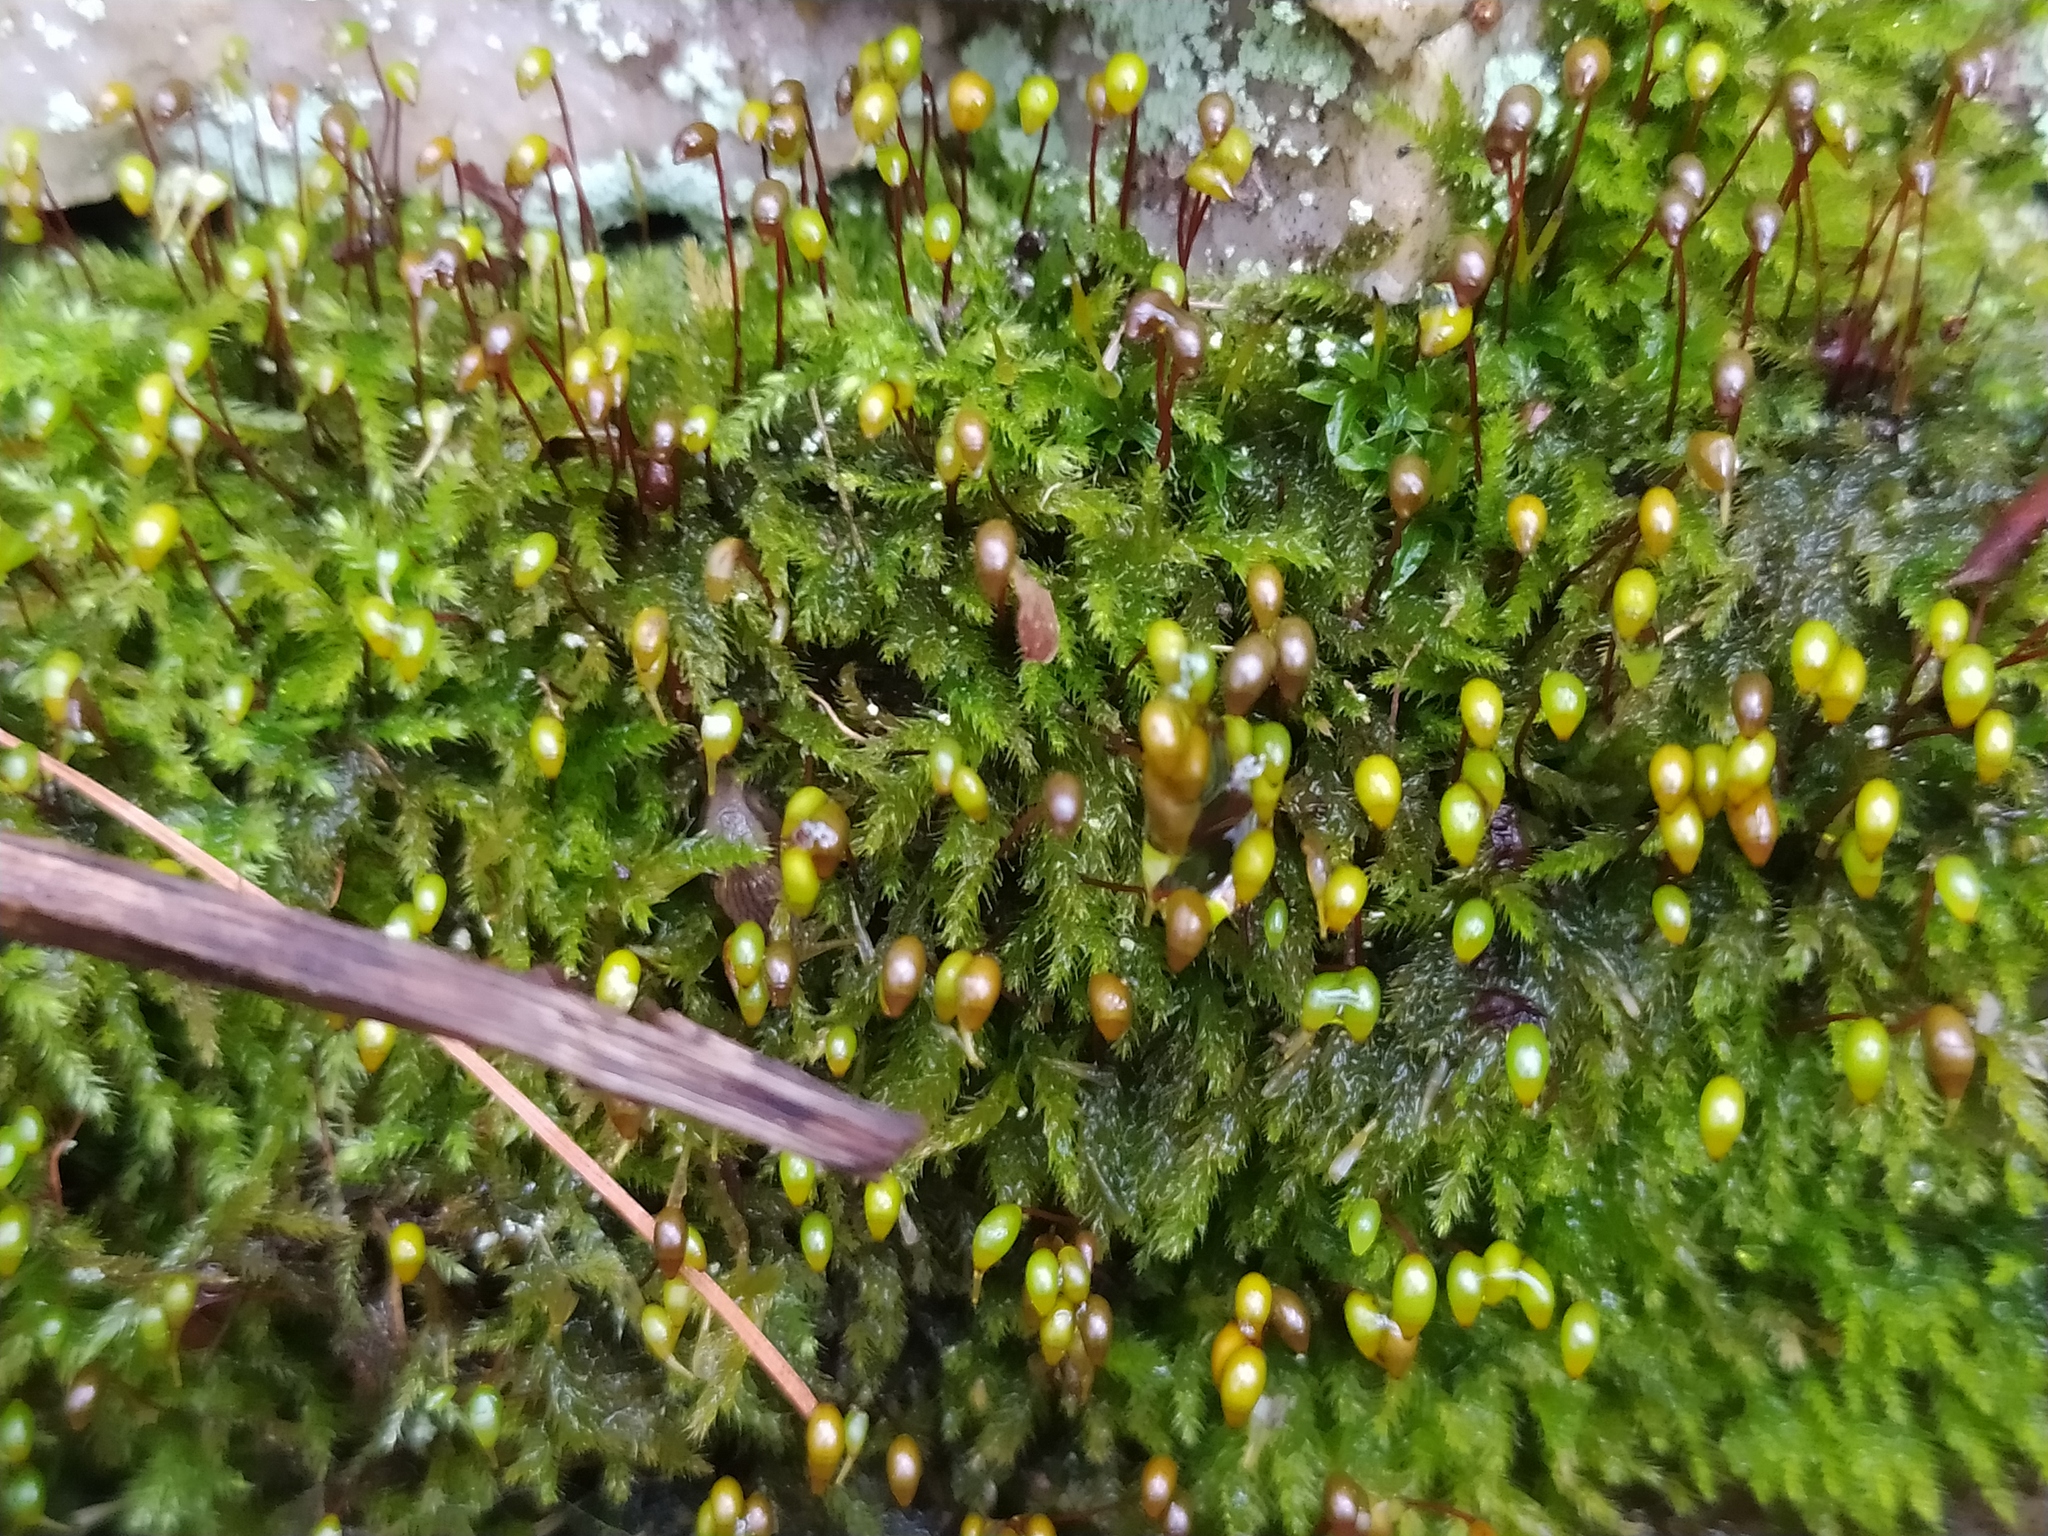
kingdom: Plantae
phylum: Bryophyta
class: Bryopsida
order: Hypnales
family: Brachytheciaceae
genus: Brachytheciastrum
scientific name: Brachytheciastrum velutinum
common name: Velvet feather-moss
